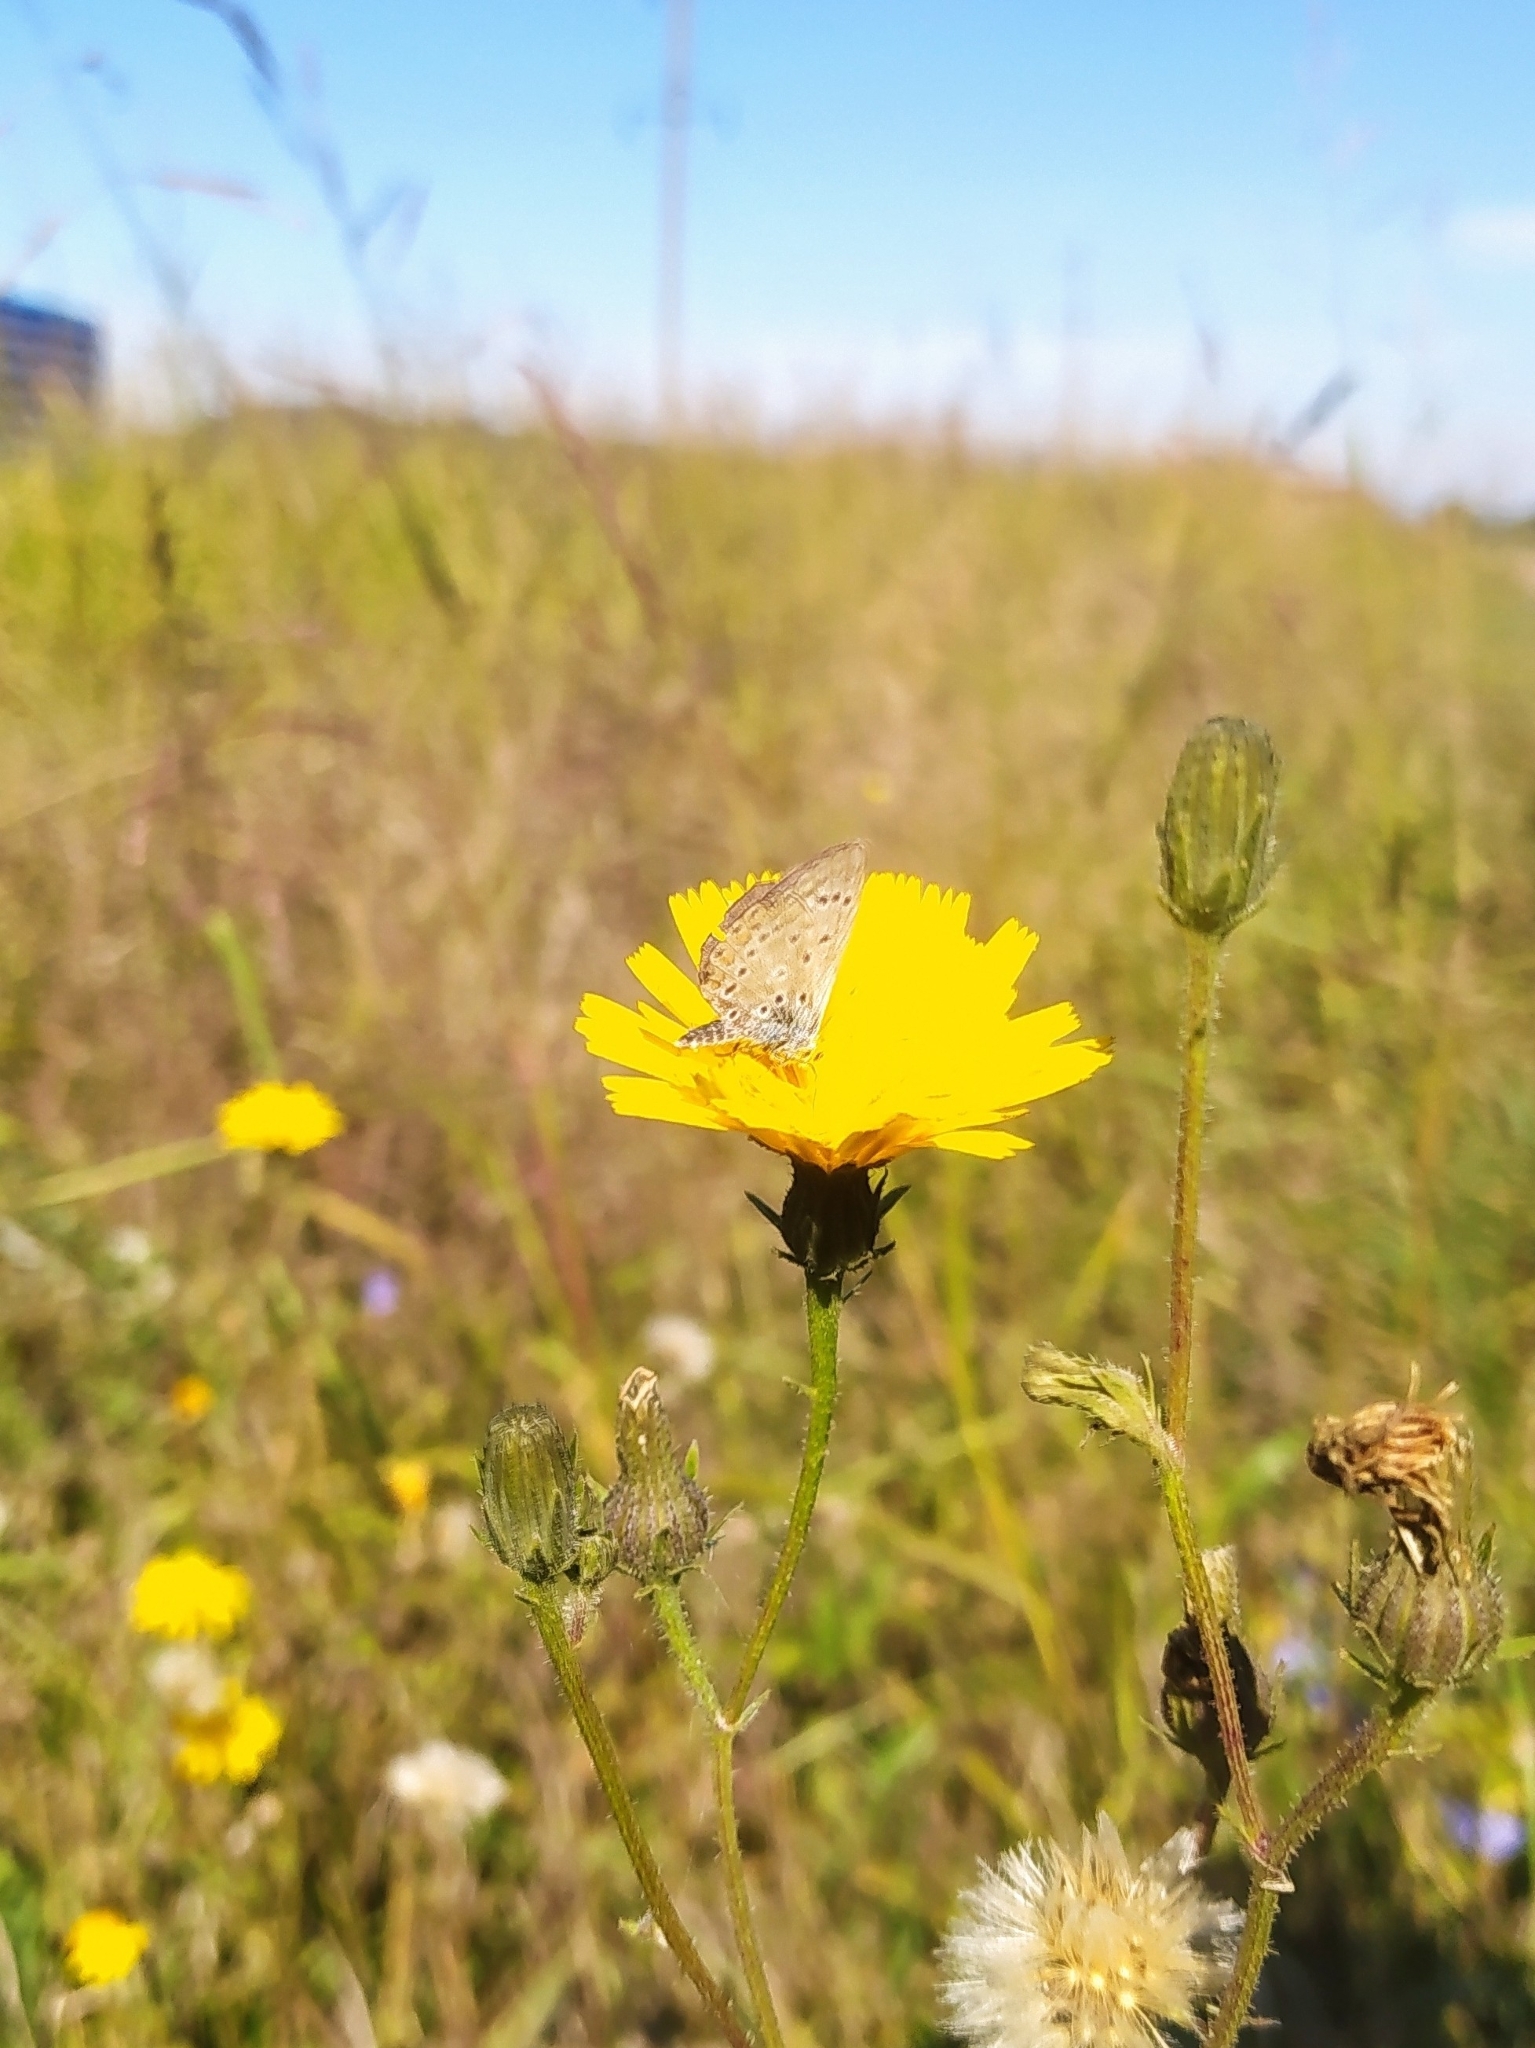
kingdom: Animalia
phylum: Arthropoda
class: Insecta
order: Lepidoptera
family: Lycaenidae
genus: Polyommatus
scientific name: Polyommatus icarus
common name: Common blue
